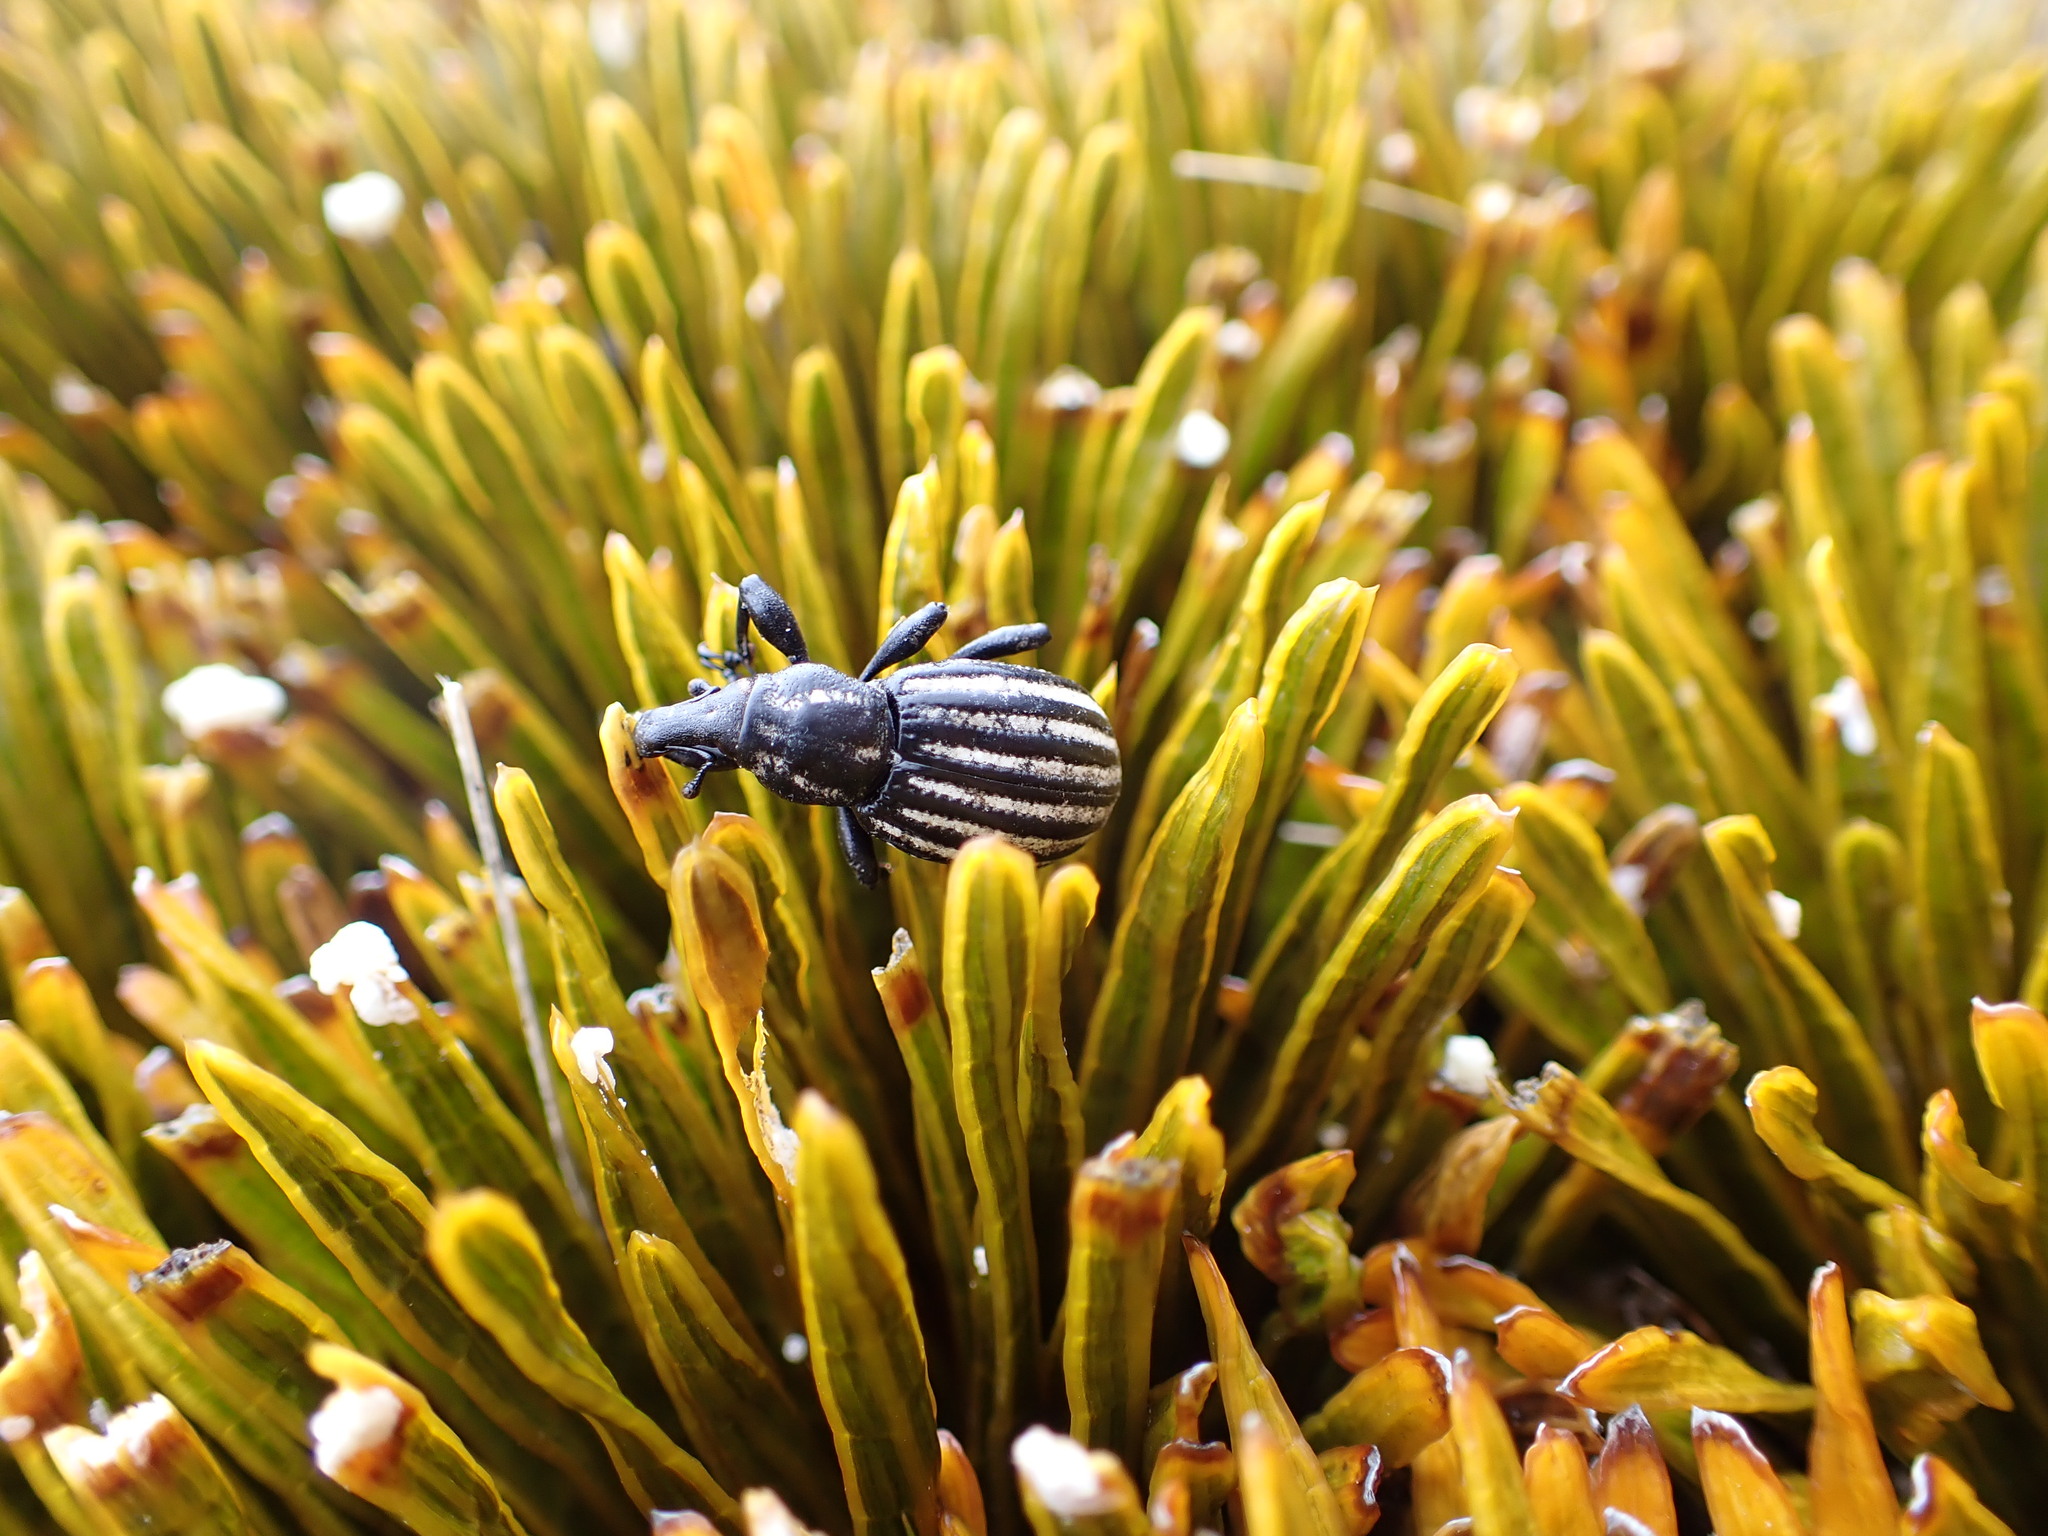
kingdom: Animalia
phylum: Arthropoda
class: Insecta
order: Coleoptera
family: Curculionidae
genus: Lyperobius
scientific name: Lyperobius hudsoni
